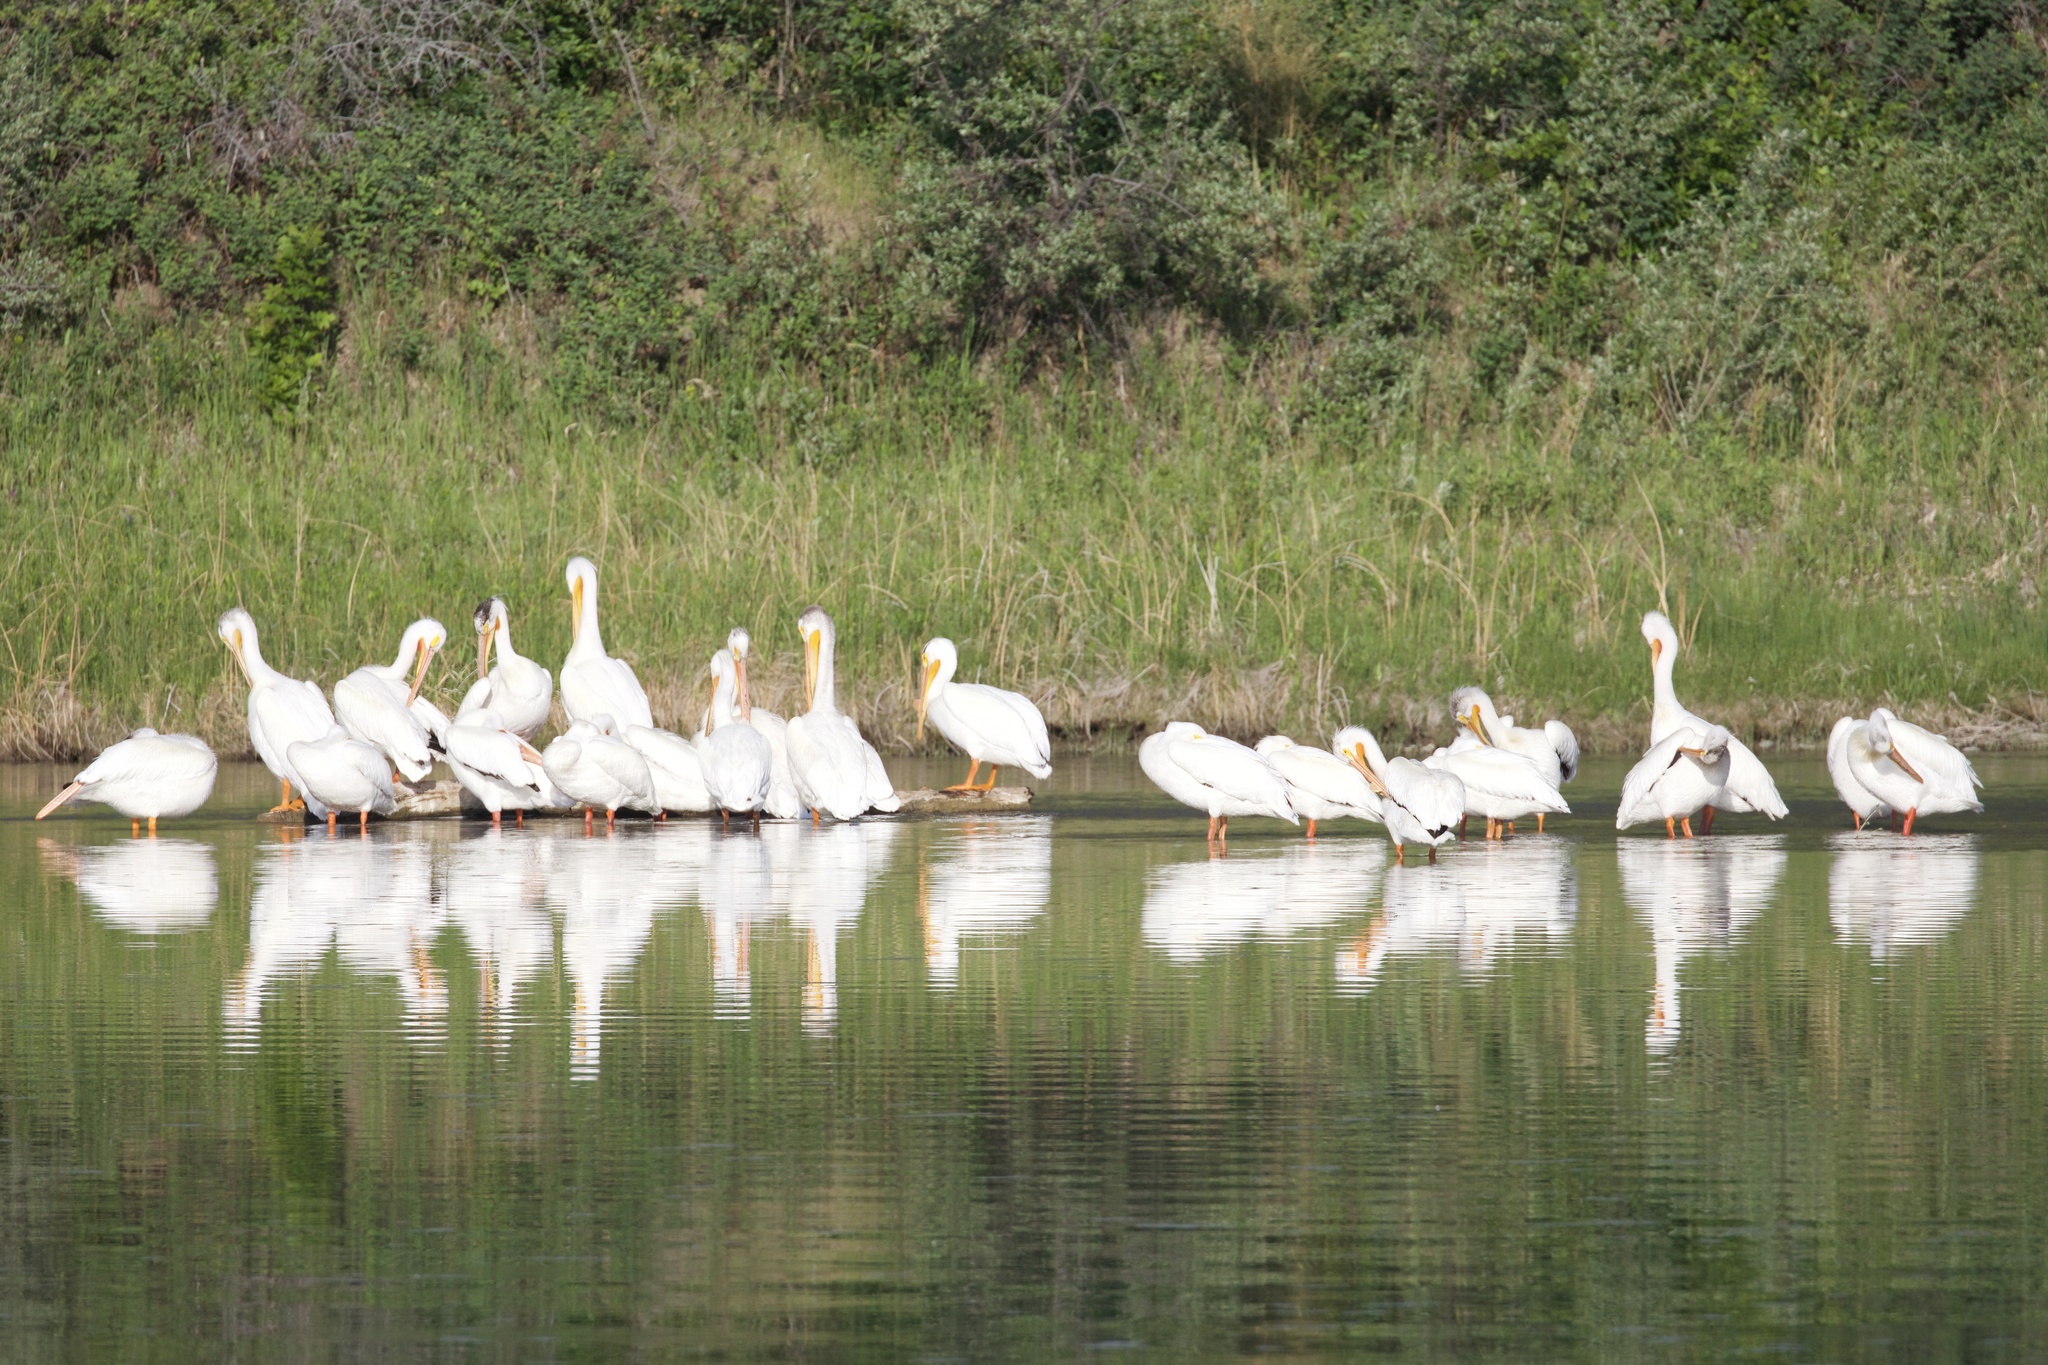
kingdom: Animalia
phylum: Chordata
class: Aves
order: Pelecaniformes
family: Pelecanidae
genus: Pelecanus
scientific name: Pelecanus erythrorhynchos
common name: American white pelican
